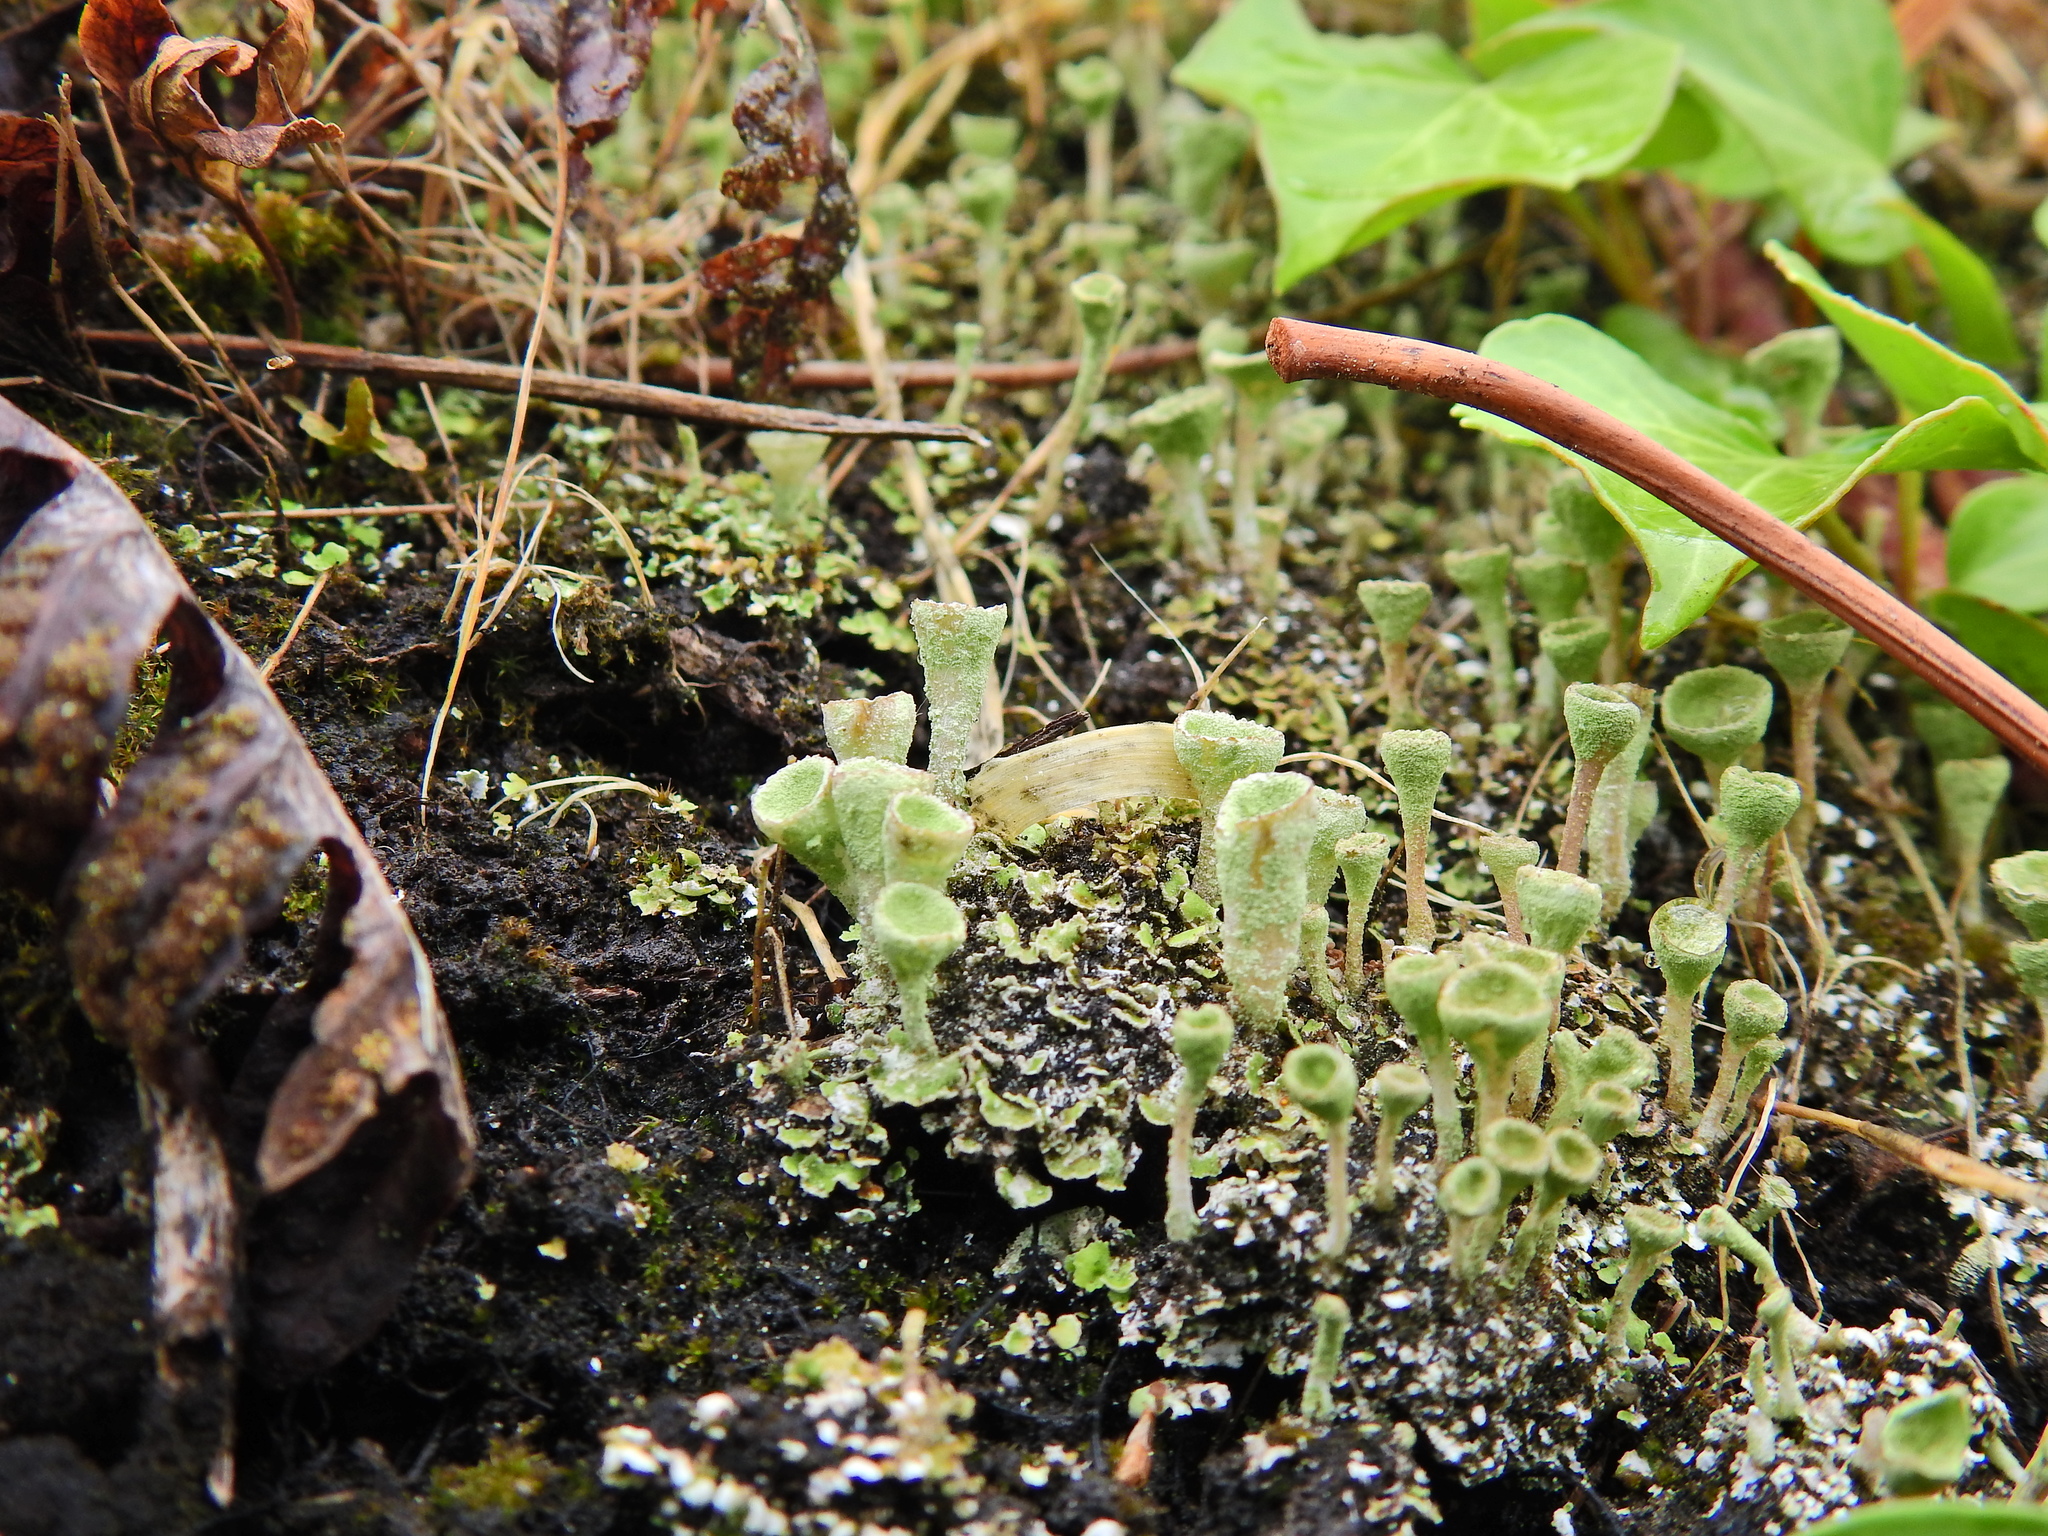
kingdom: Fungi
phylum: Ascomycota
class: Lecanoromycetes
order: Lecanorales
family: Cladoniaceae
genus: Cladonia
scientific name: Cladonia
